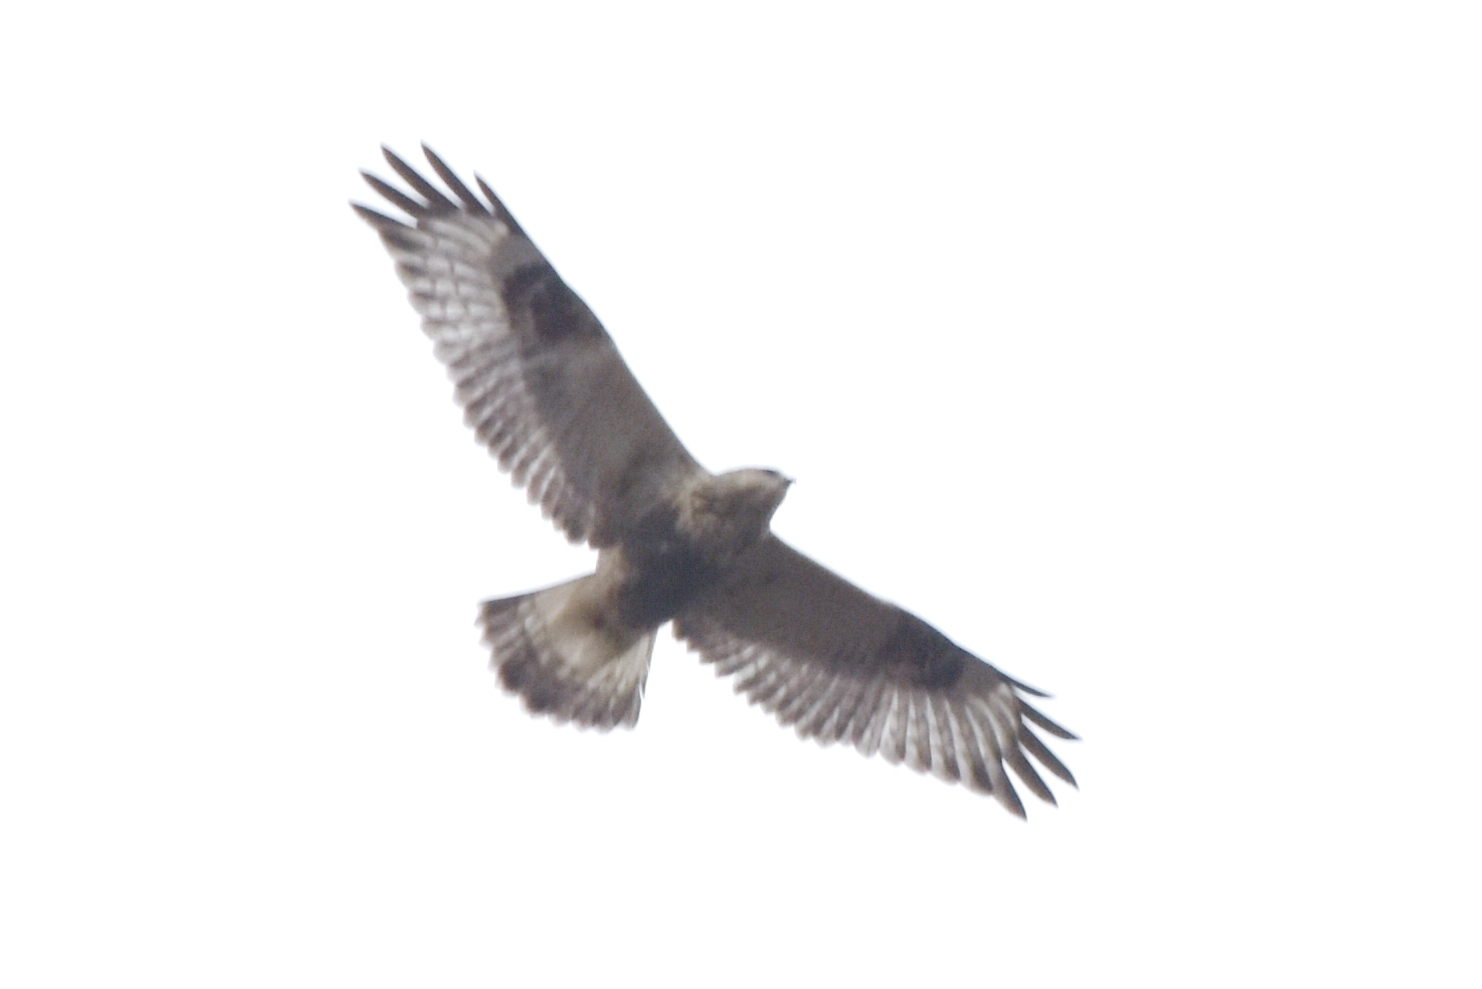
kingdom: Animalia
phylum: Chordata
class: Aves
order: Accipitriformes
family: Accipitridae
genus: Buteo
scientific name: Buteo lagopus
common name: Rough-legged buzzard
